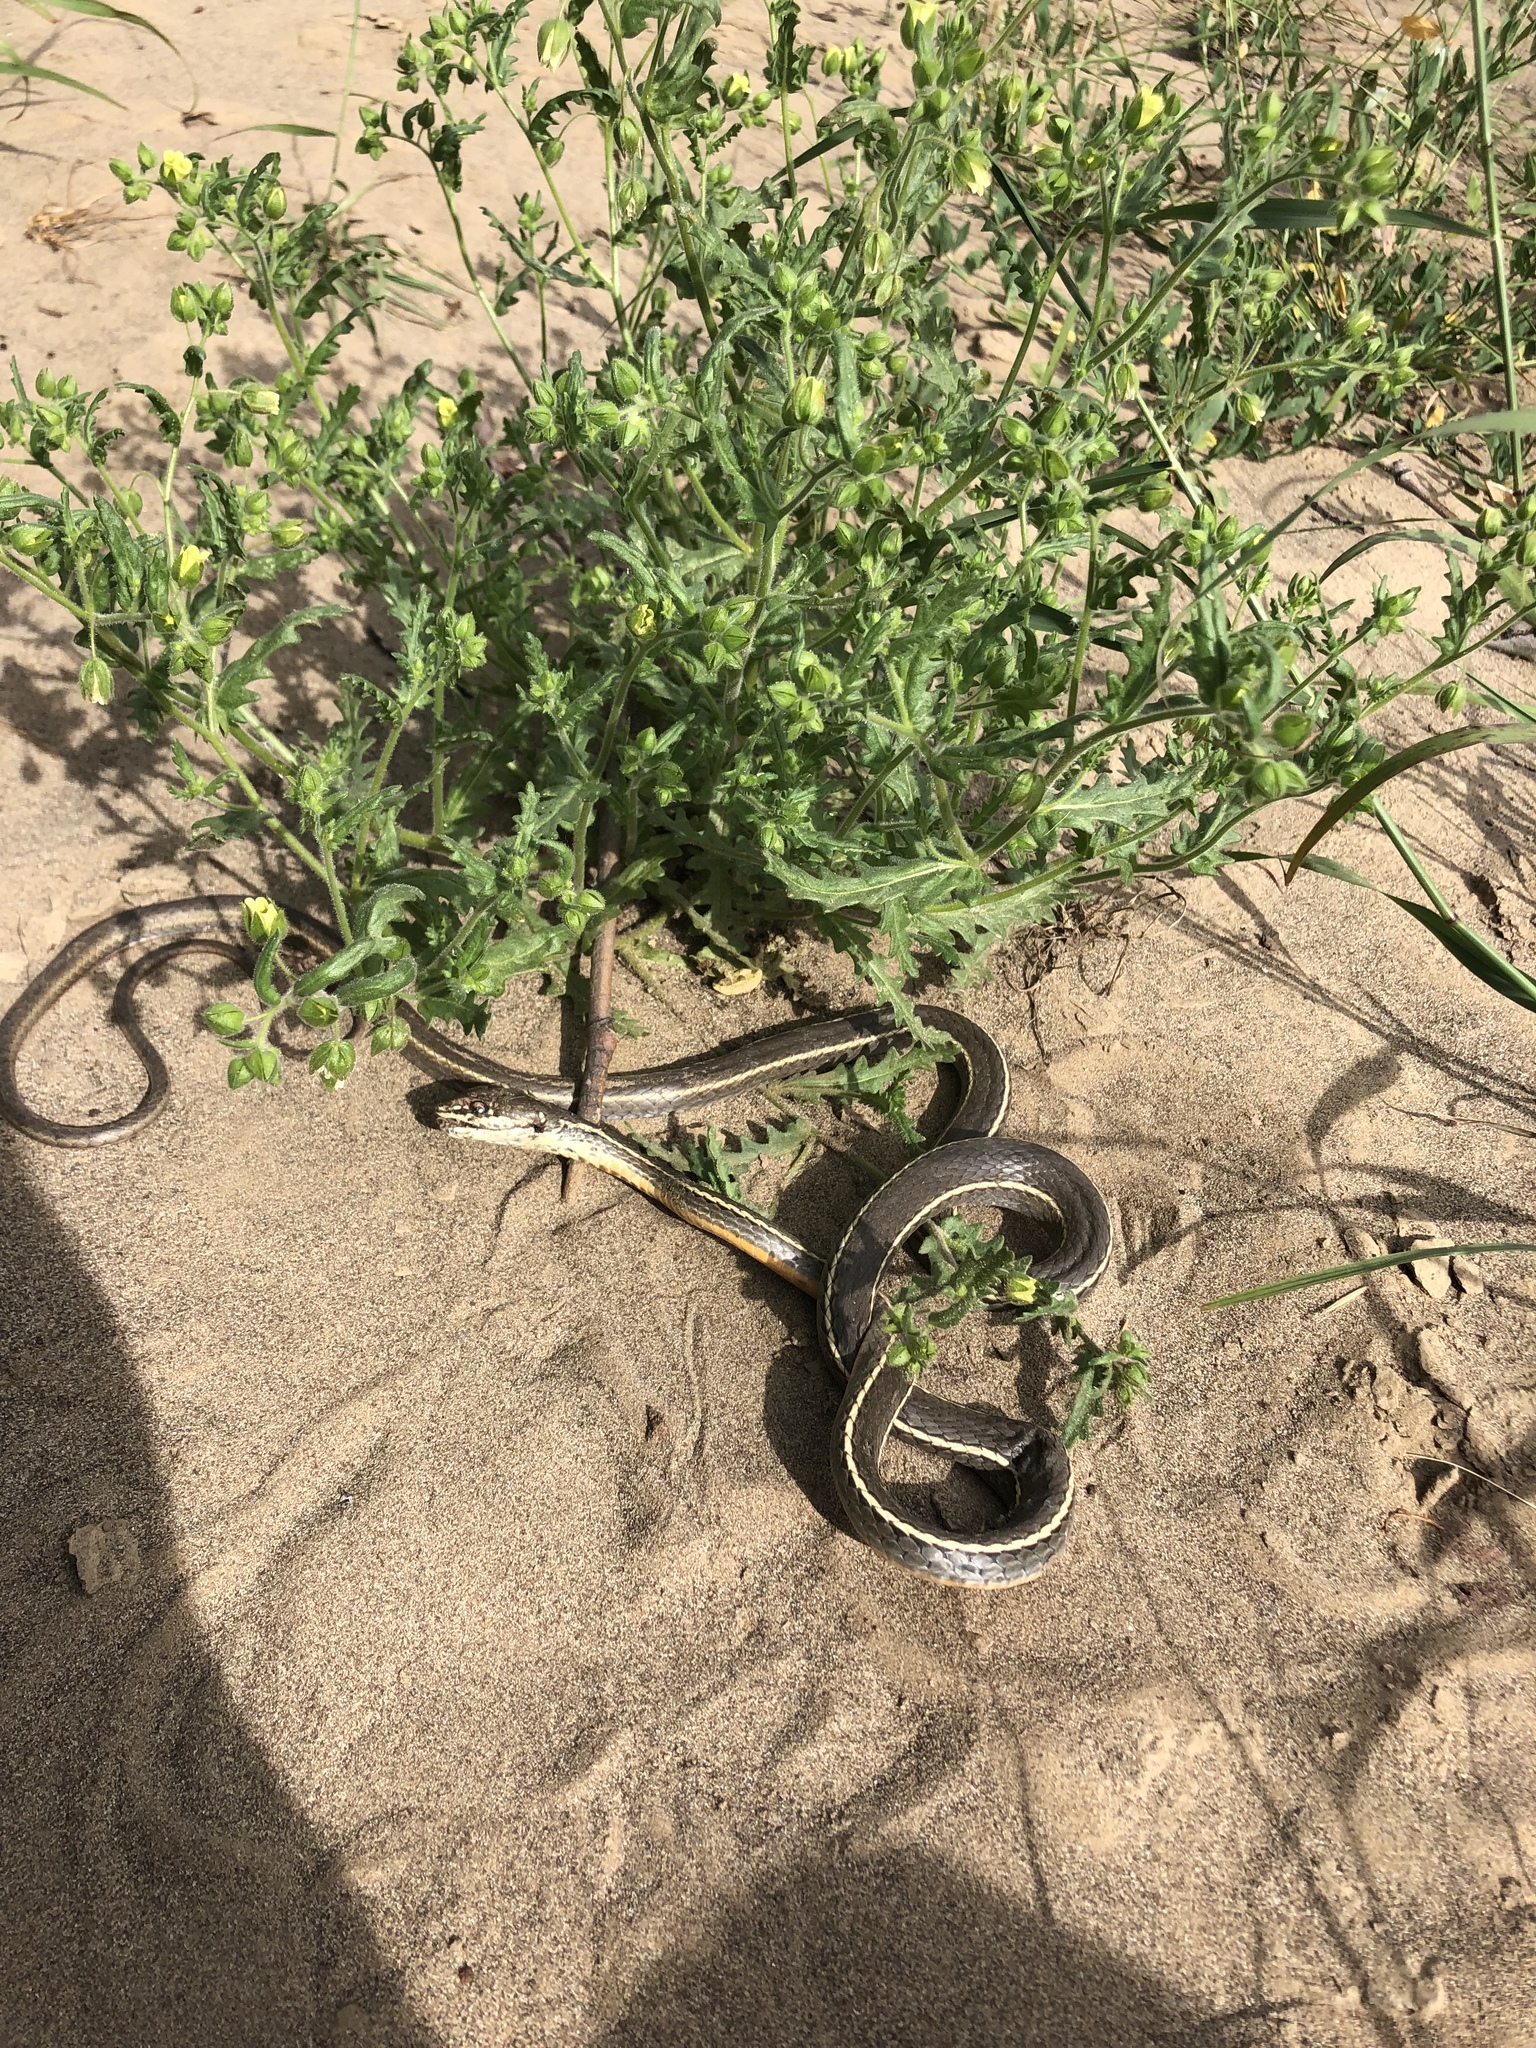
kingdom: Animalia
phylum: Chordata
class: Squamata
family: Colubridae
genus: Masticophis
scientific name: Masticophis lateralis
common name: Striped racer
